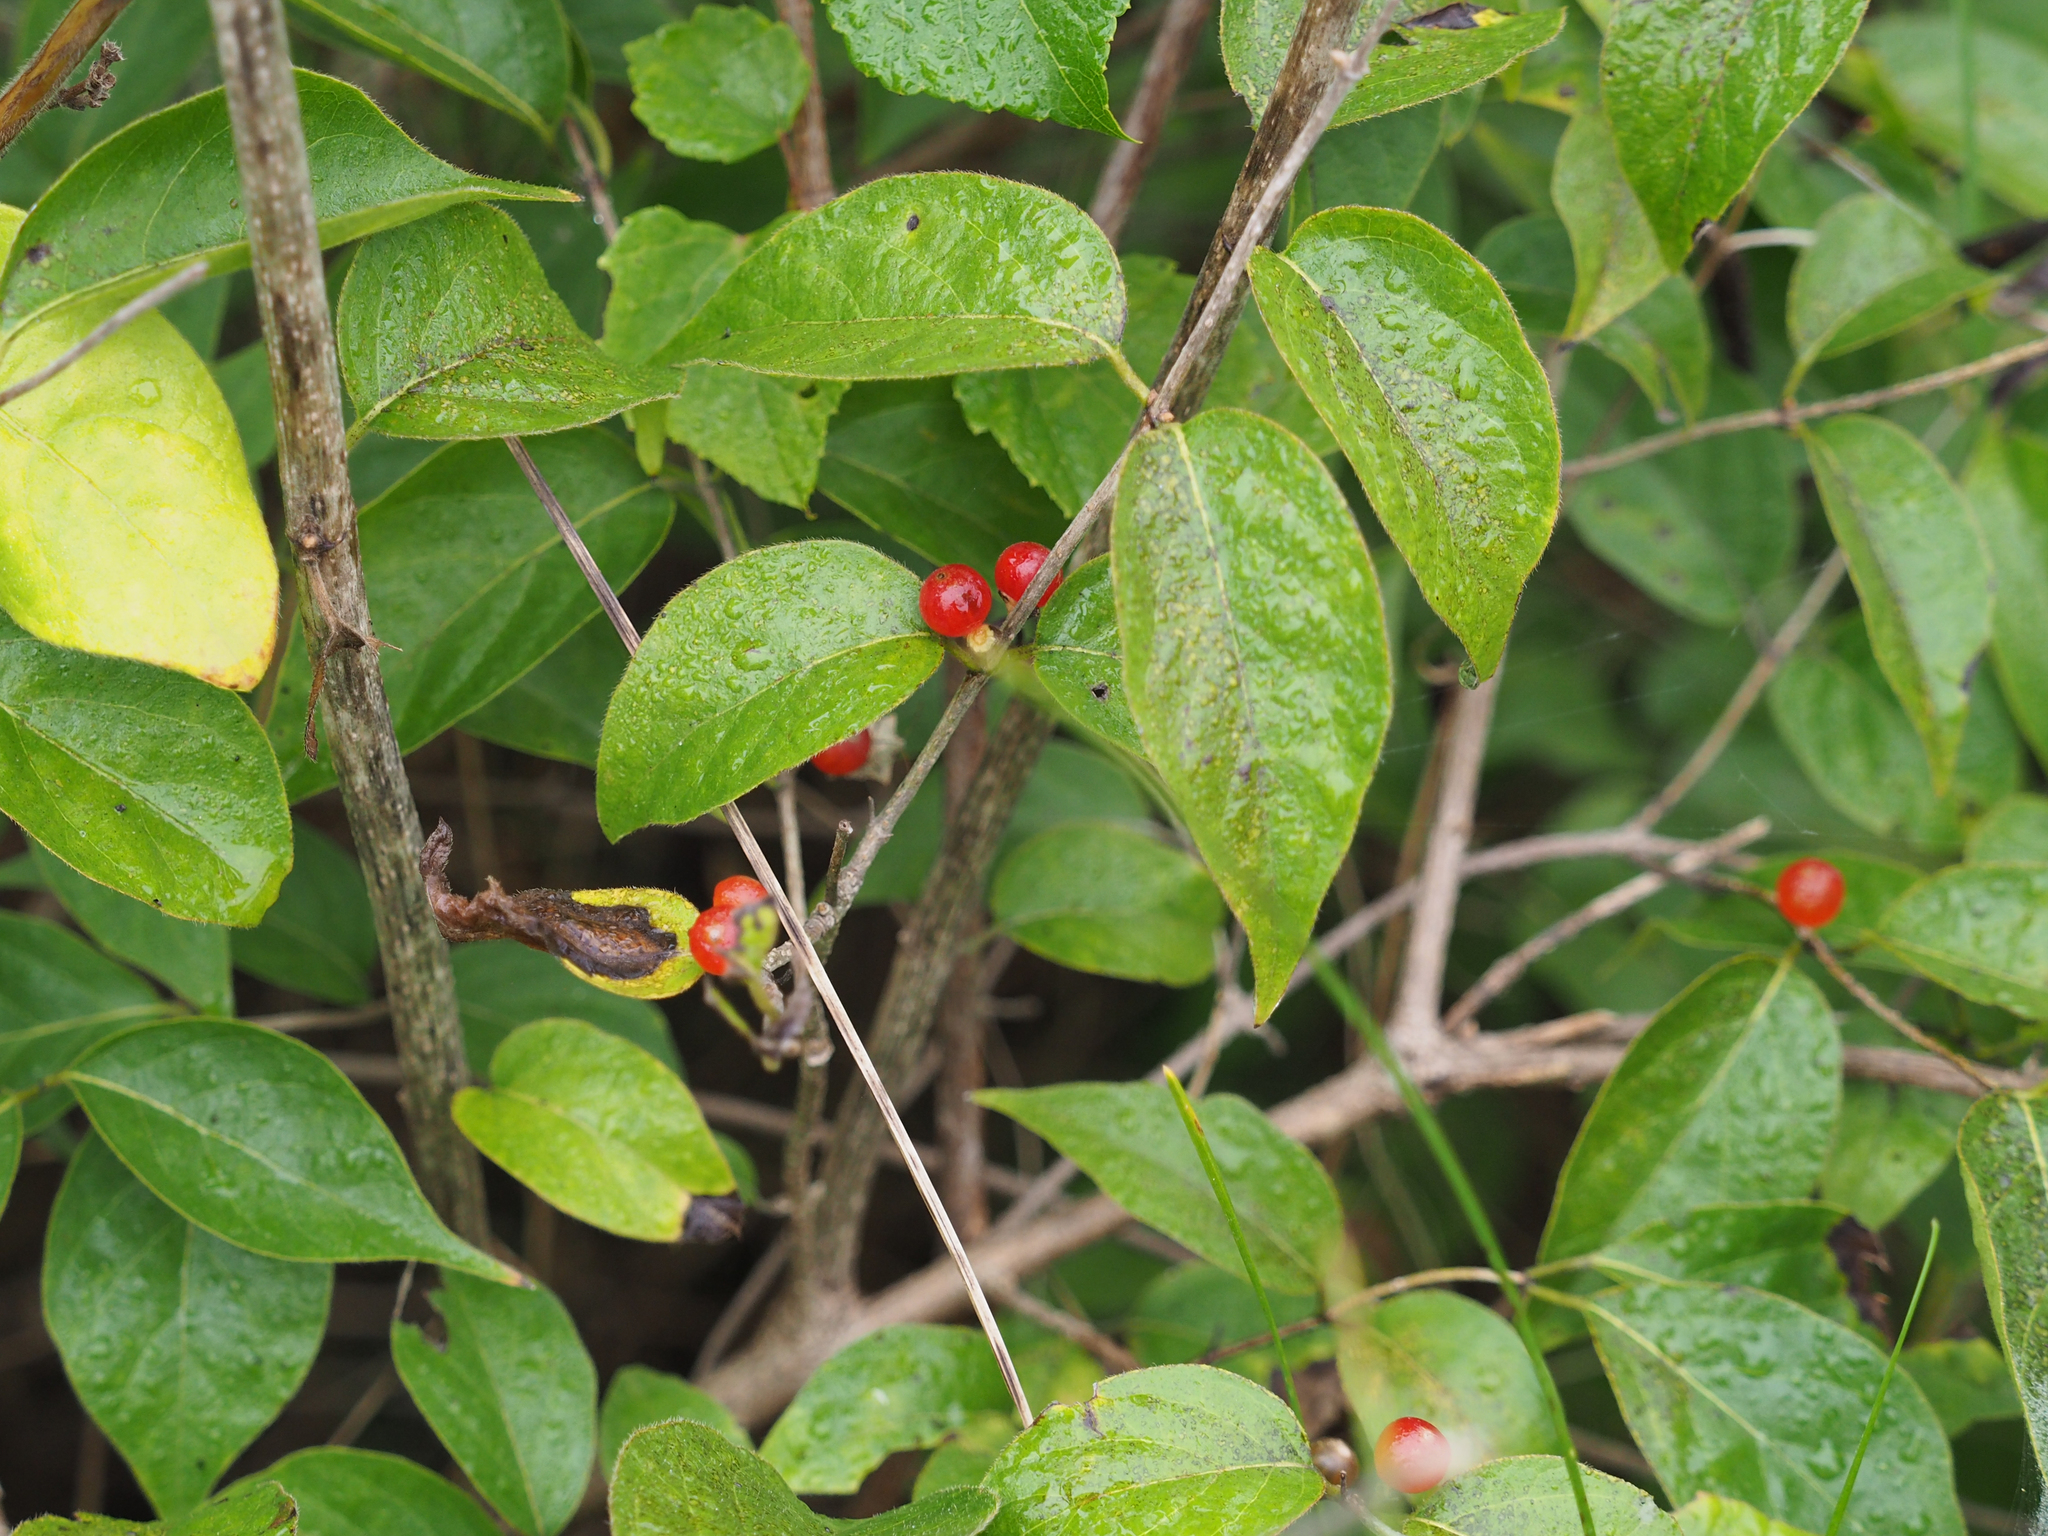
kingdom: Plantae
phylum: Tracheophyta
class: Magnoliopsida
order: Dipsacales
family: Caprifoliaceae
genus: Lonicera
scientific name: Lonicera maackii
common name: Amur honeysuckle
